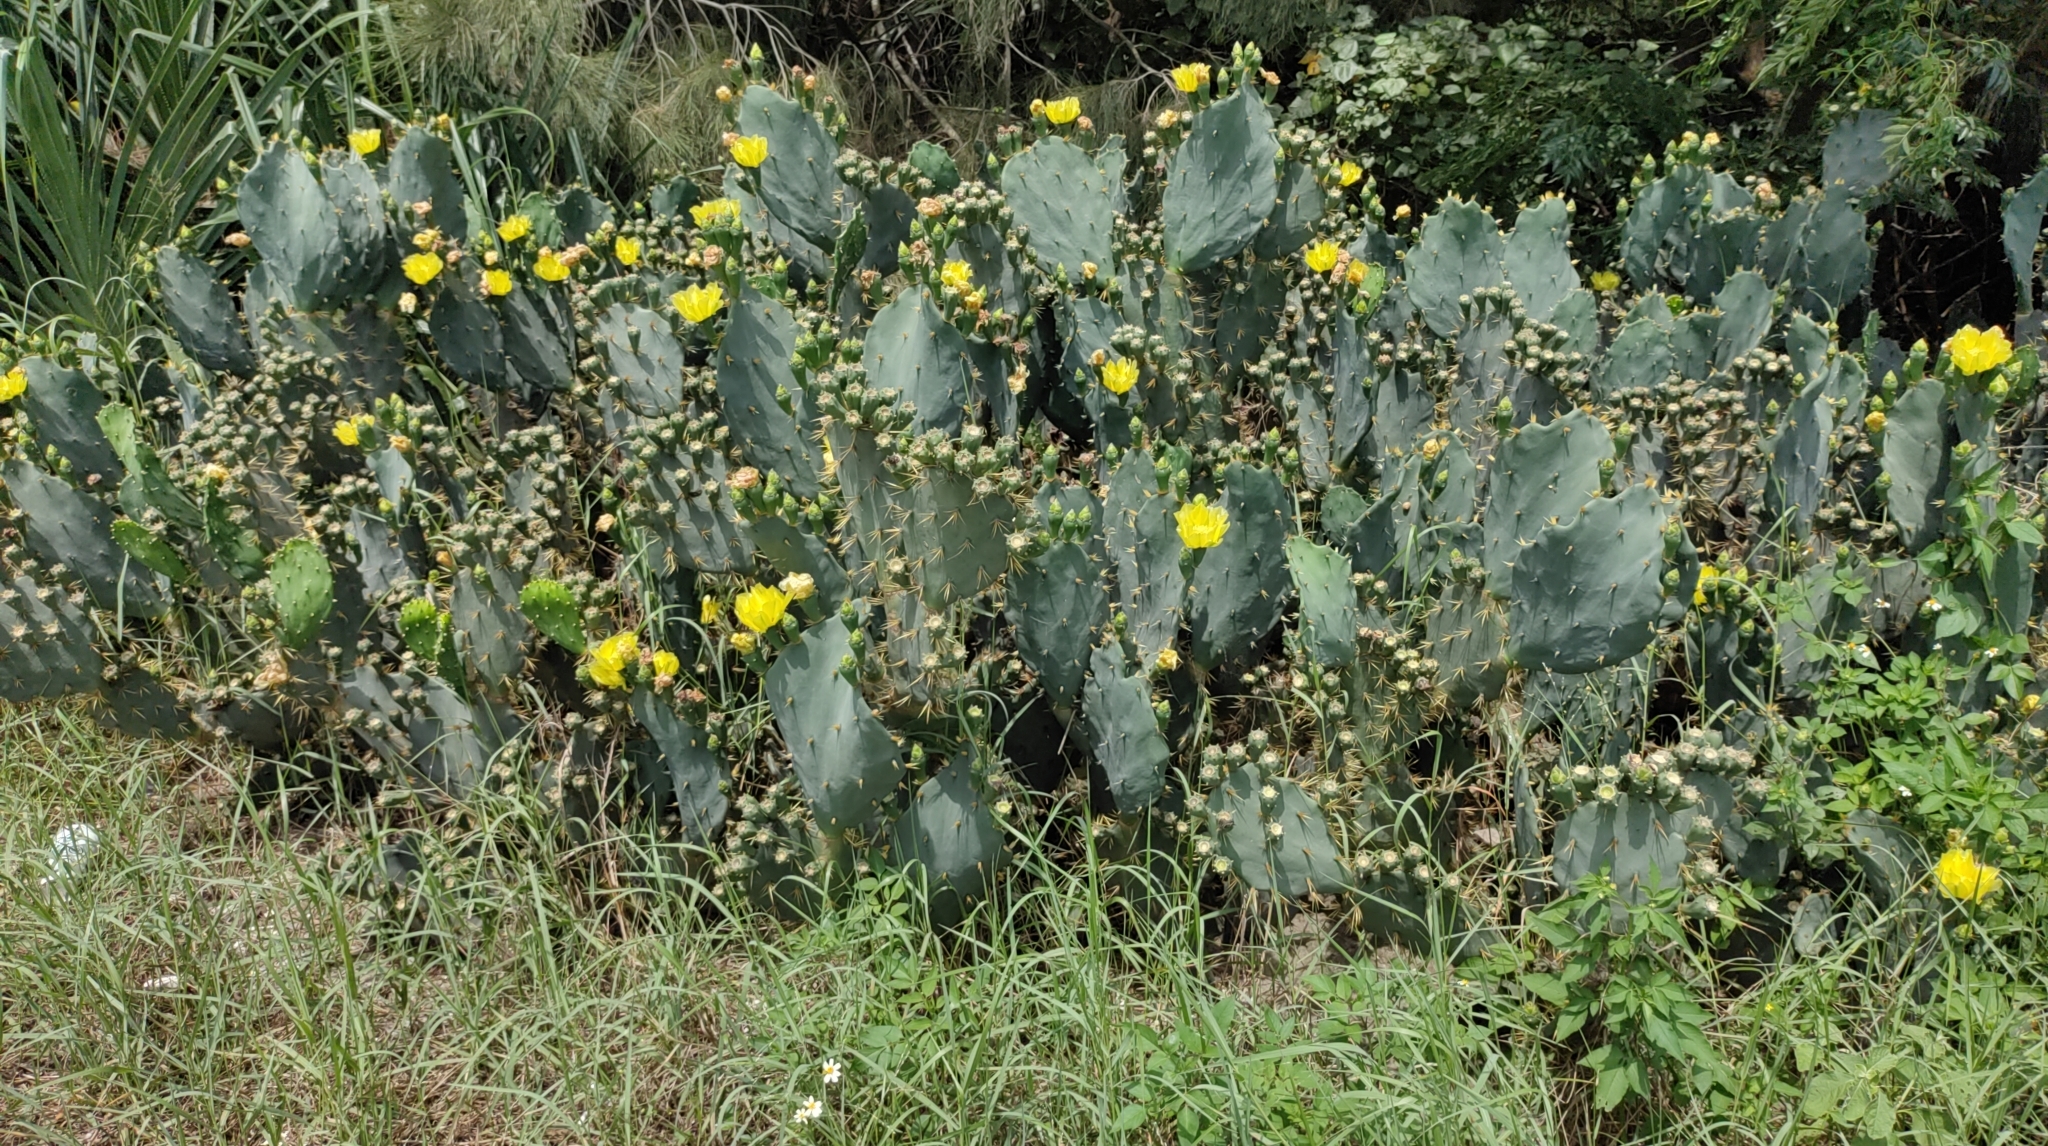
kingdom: Plantae
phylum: Tracheophyta
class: Magnoliopsida
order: Caryophyllales
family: Cactaceae
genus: Opuntia
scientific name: Opuntia dillenii
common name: Sour prickle
